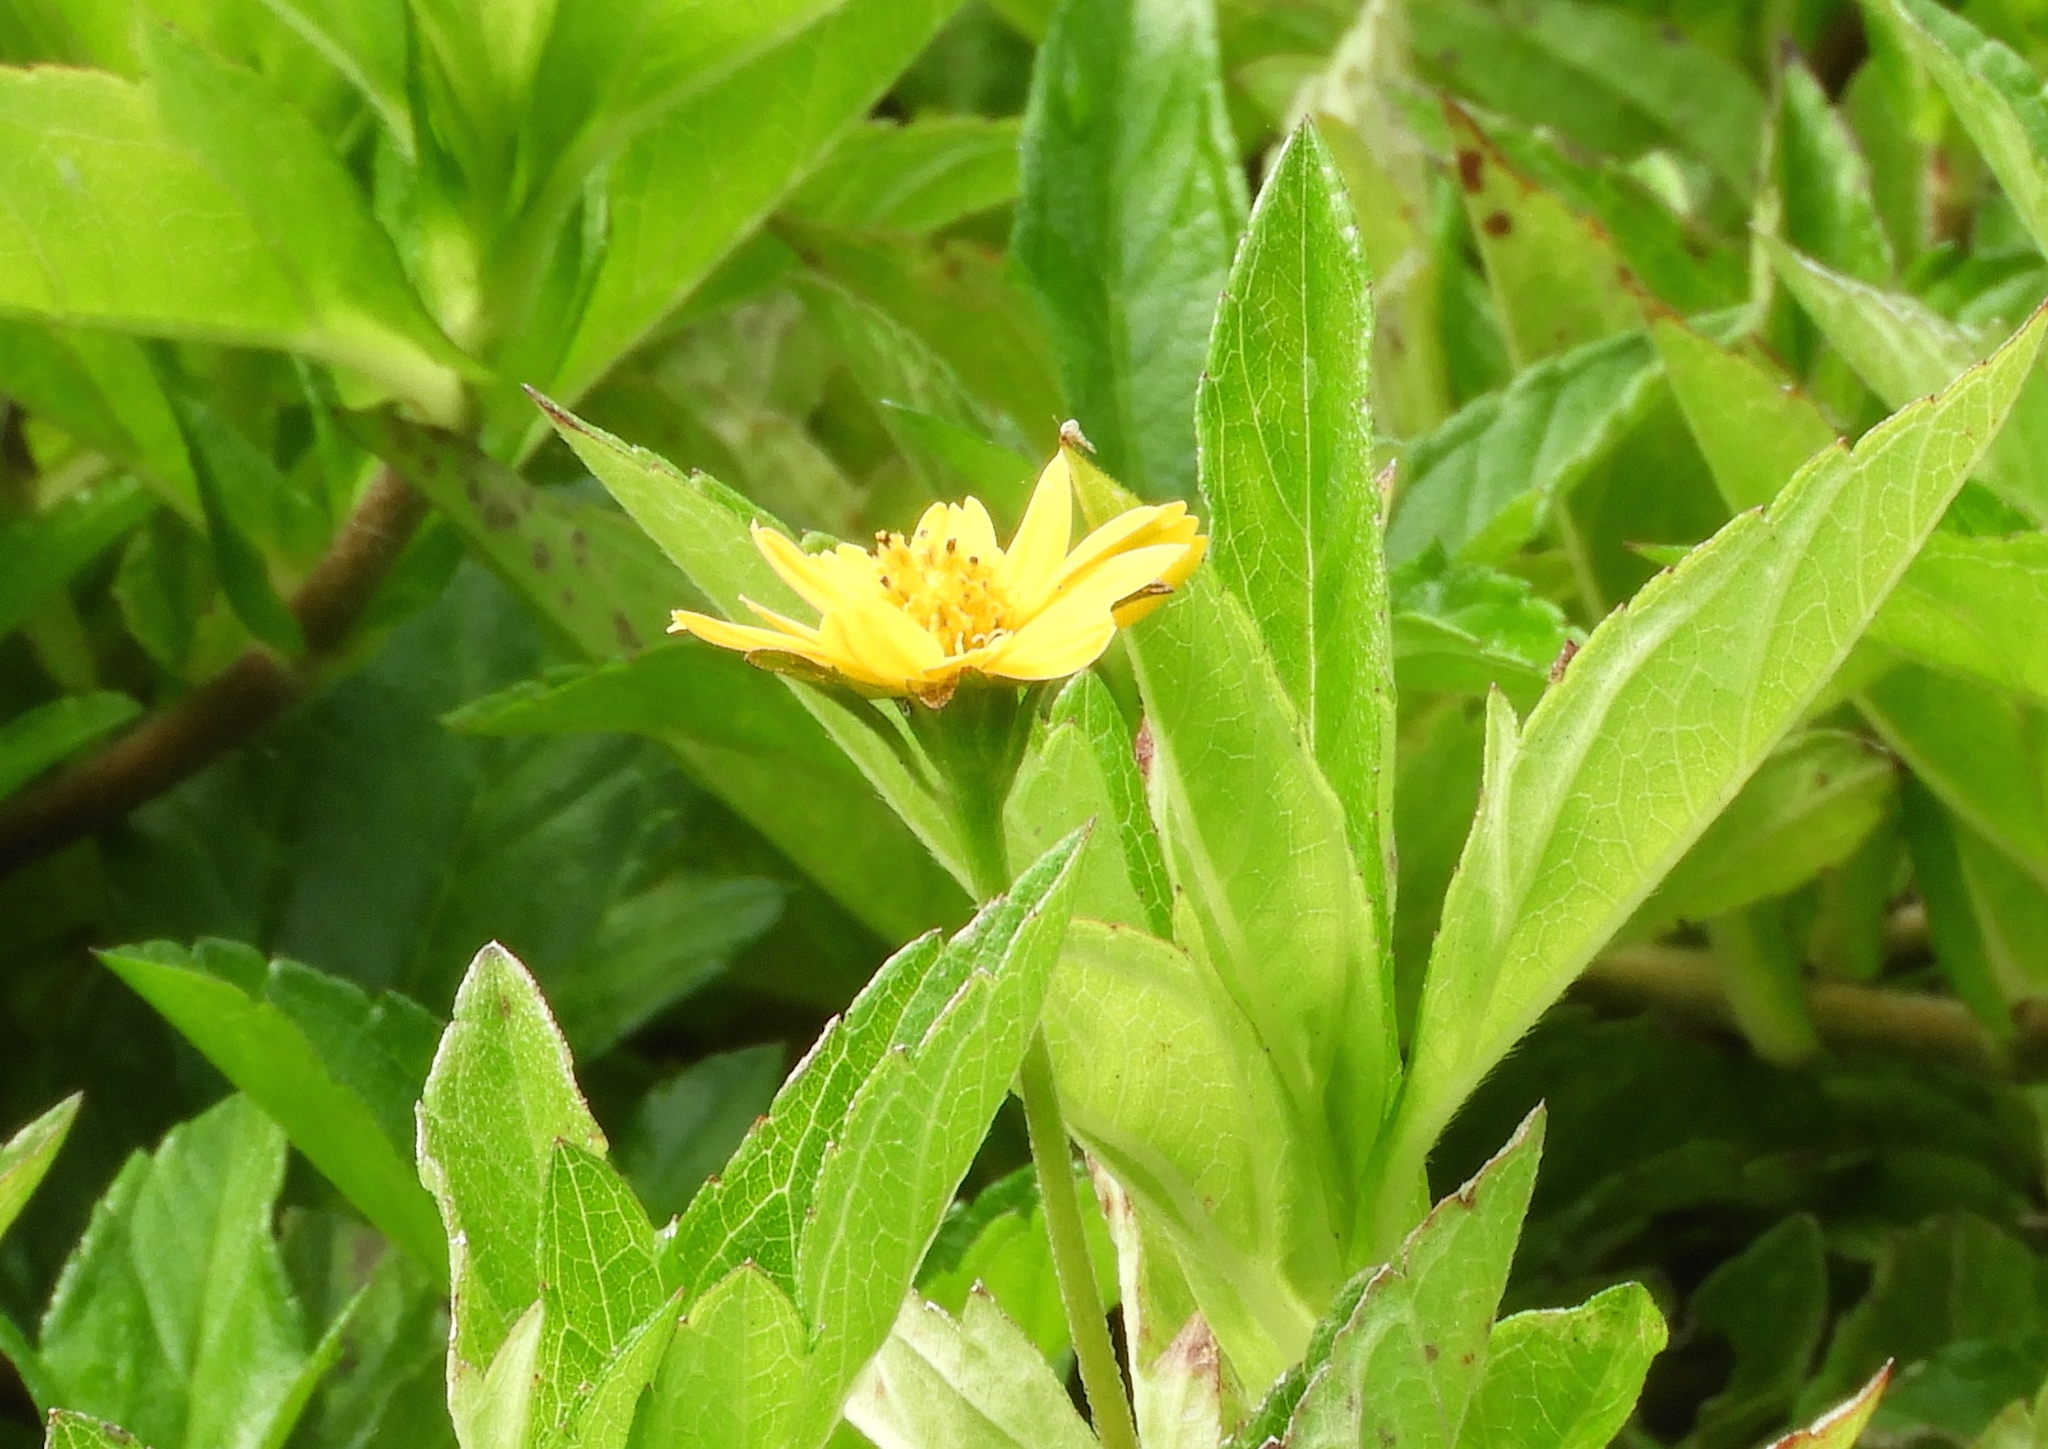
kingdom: Plantae
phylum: Tracheophyta
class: Magnoliopsida
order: Asterales
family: Asteraceae
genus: Sphagneticola
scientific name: Sphagneticola trilobata
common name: Bay biscayne creeping-oxeye
